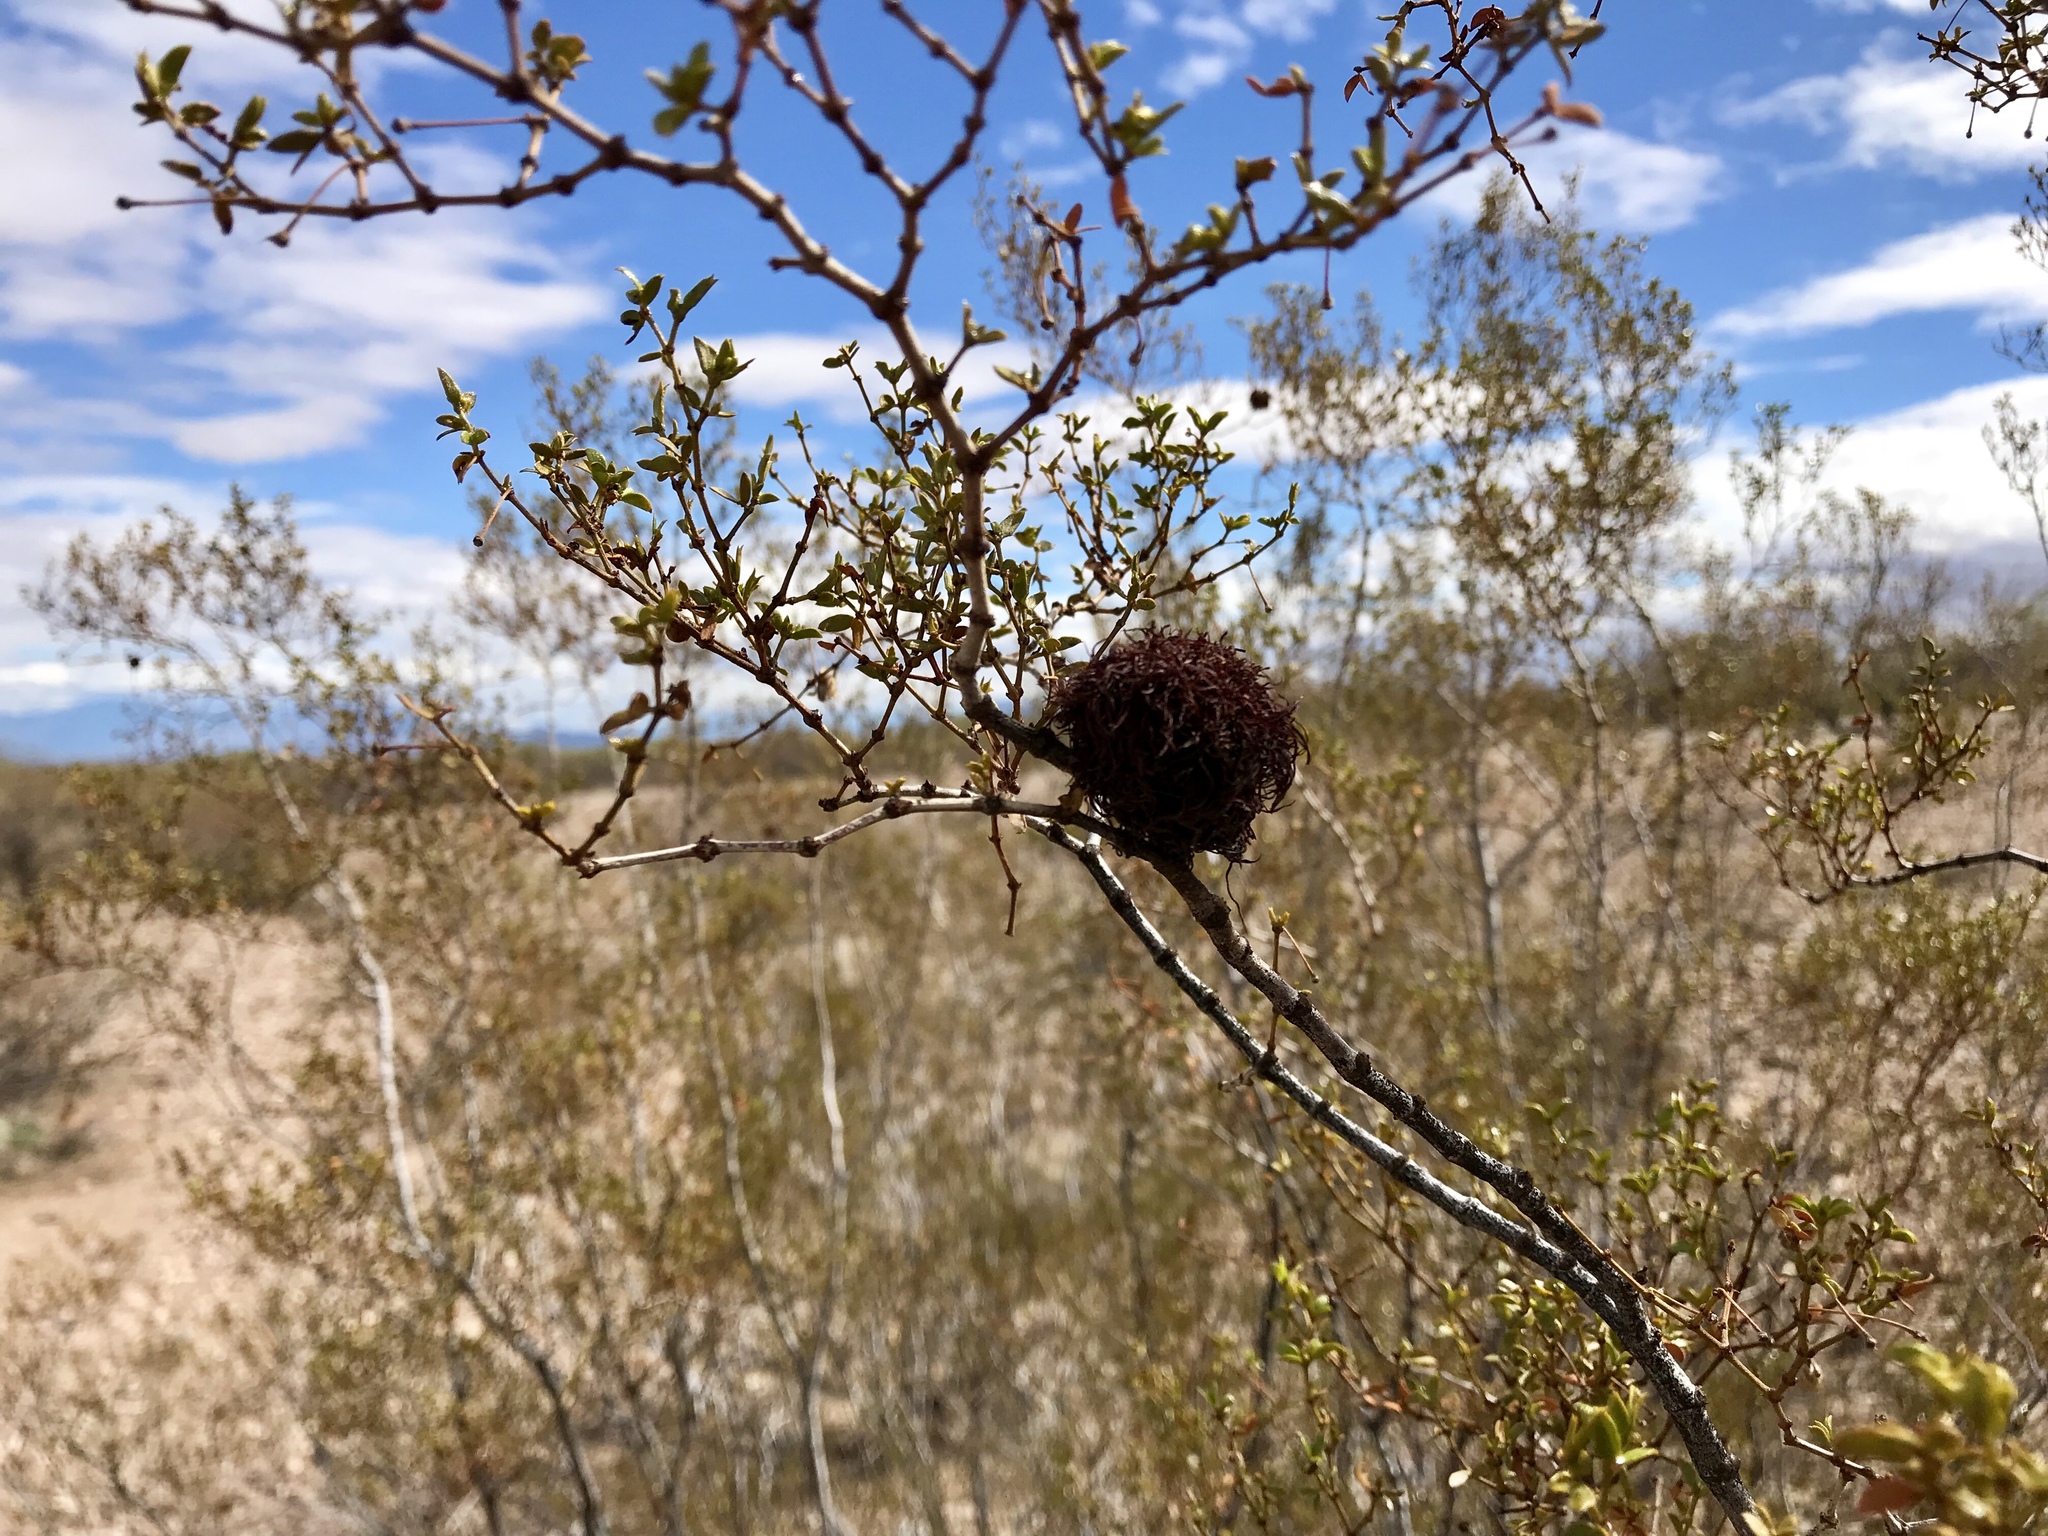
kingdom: Animalia
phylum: Arthropoda
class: Insecta
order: Diptera
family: Cecidomyiidae
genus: Asphondylia
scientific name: Asphondylia auripila
